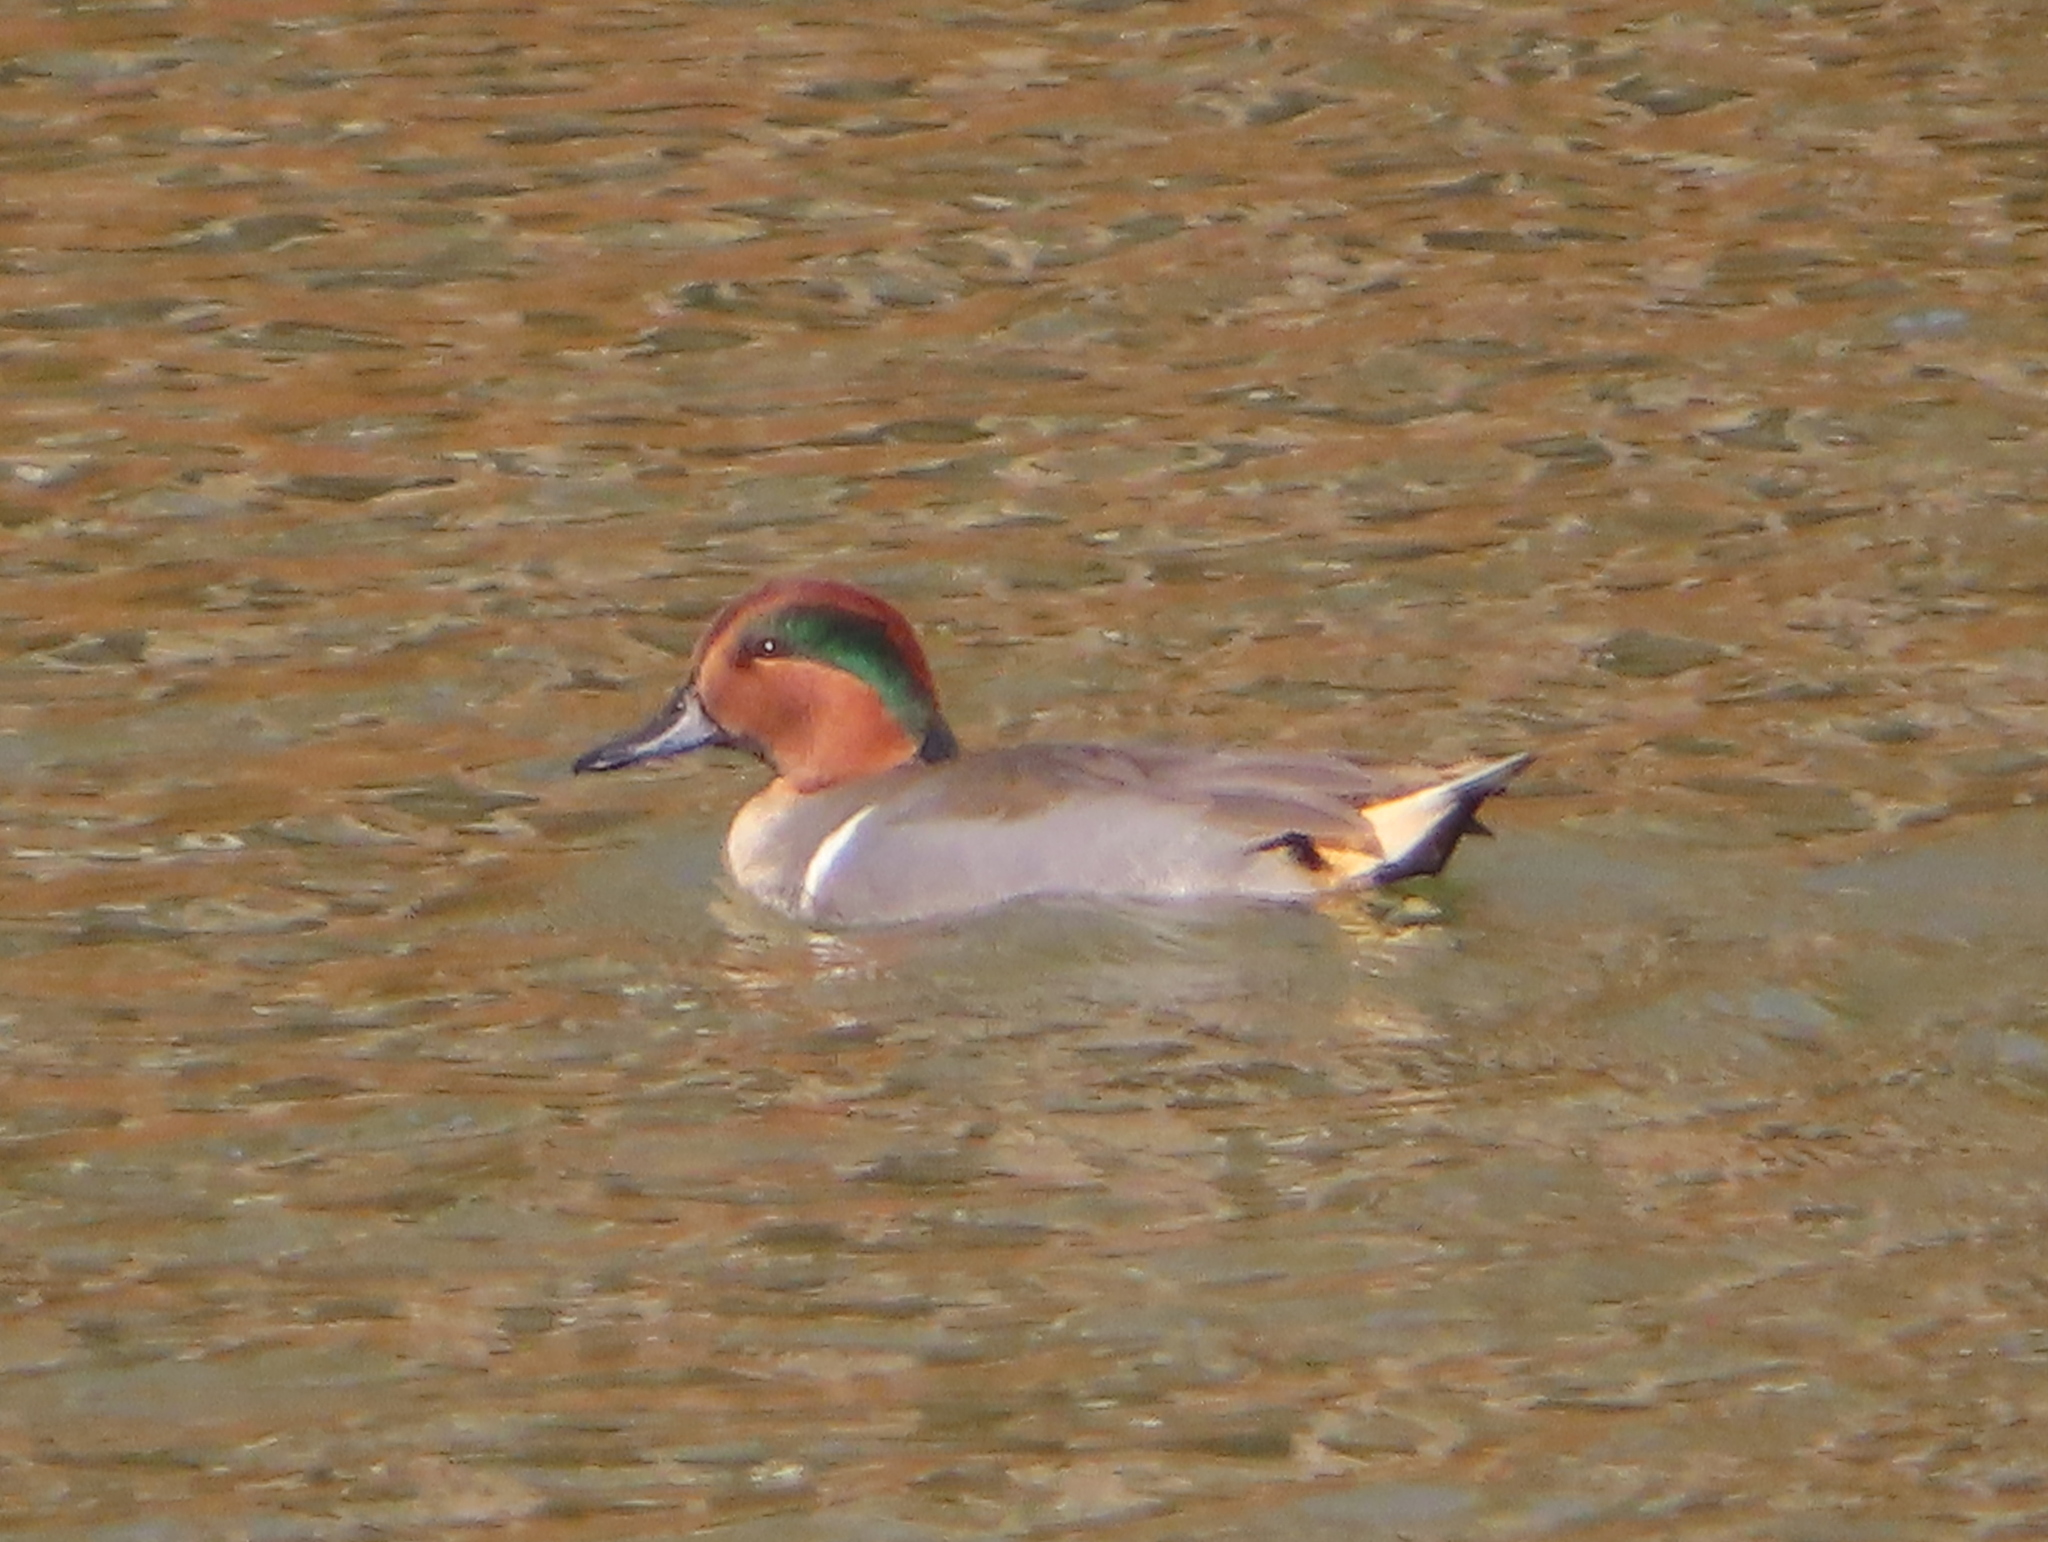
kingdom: Animalia
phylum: Chordata
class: Aves
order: Anseriformes
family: Anatidae
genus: Anas
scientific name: Anas crecca
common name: Eurasian teal
